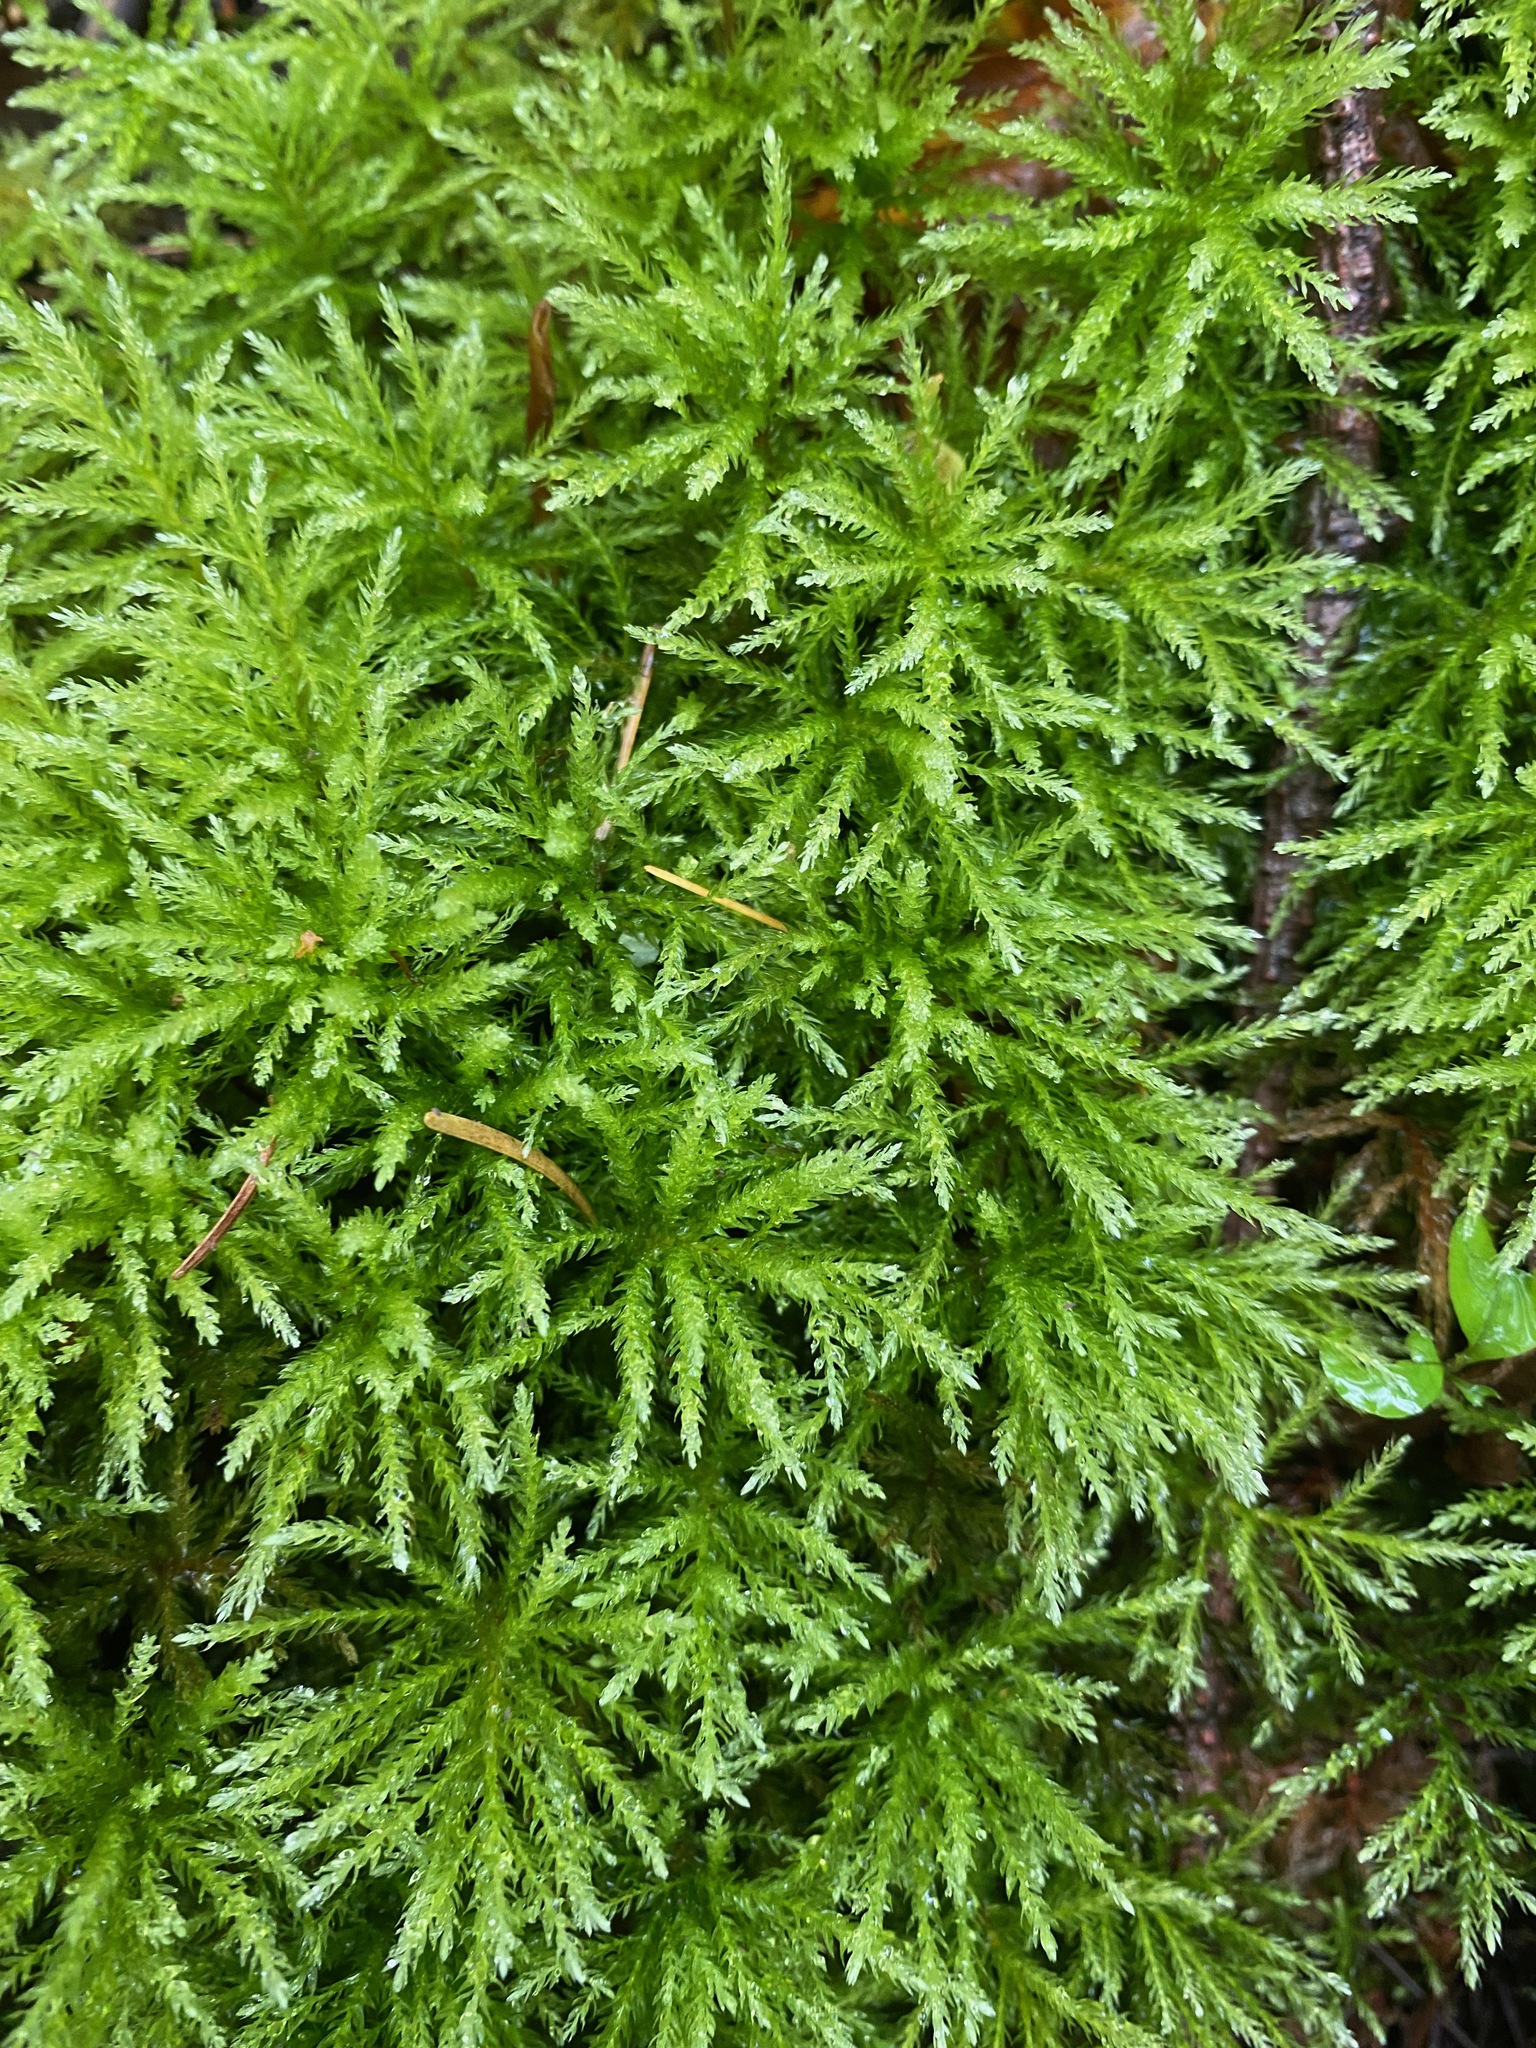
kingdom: Plantae
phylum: Bryophyta
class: Bryopsida
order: Bryales
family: Mniaceae
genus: Leucolepis
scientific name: Leucolepis acanthoneura
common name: Leucolepis umbrella moss
